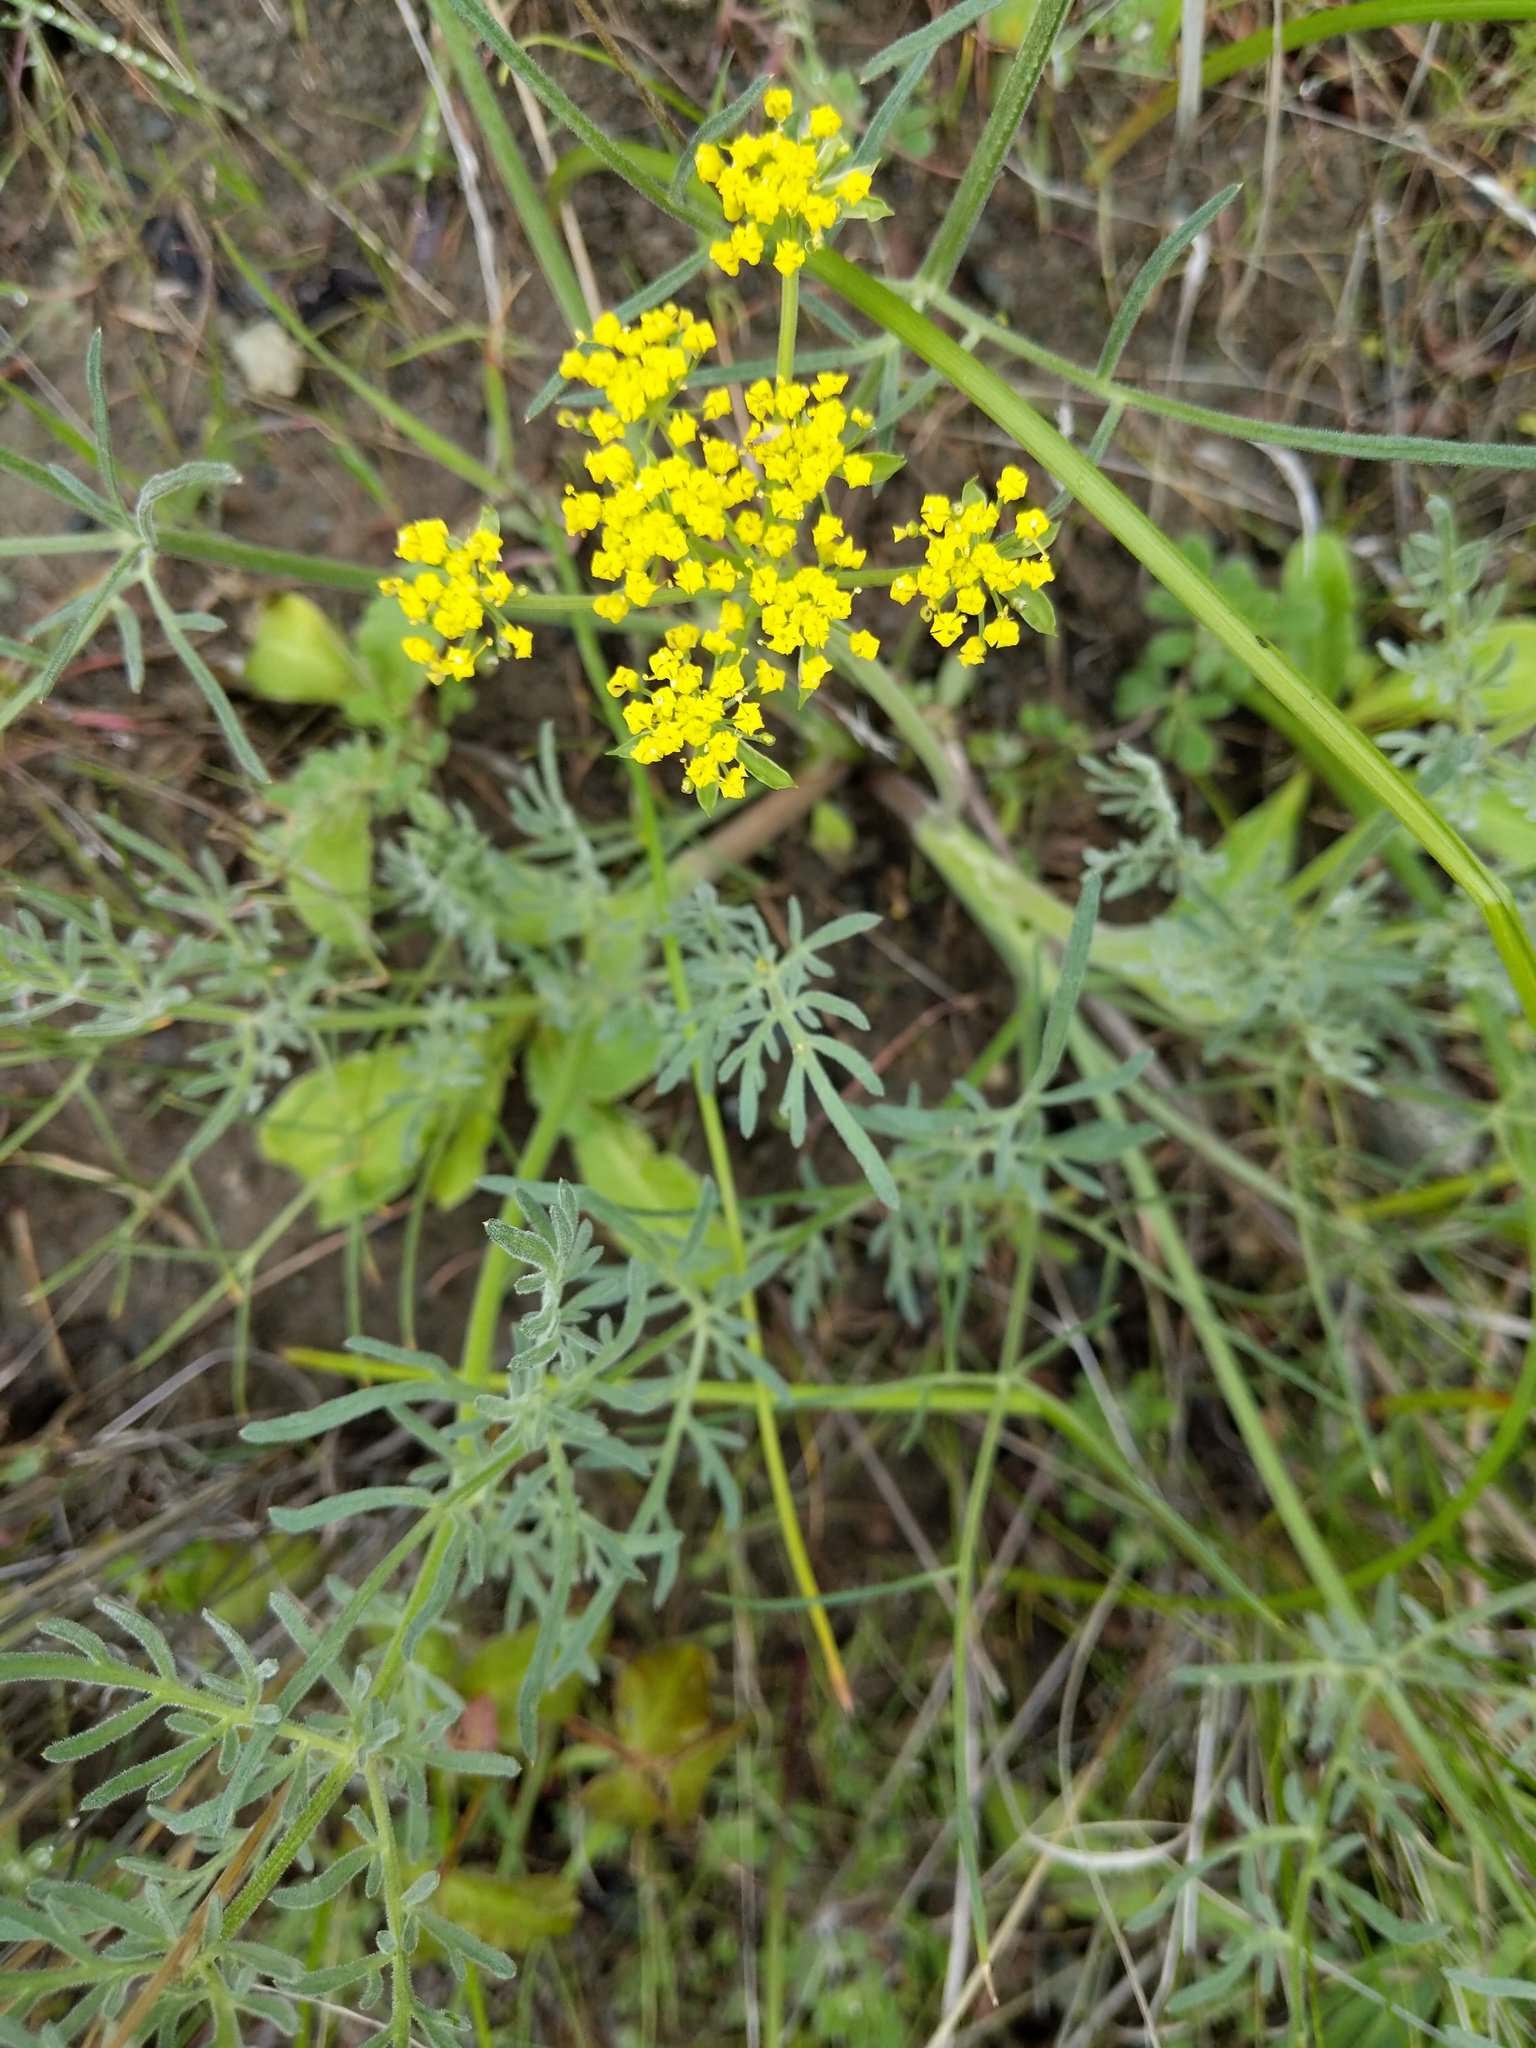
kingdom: Plantae
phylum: Tracheophyta
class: Magnoliopsida
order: Apiales
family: Apiaceae
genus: Lomatium
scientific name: Lomatium utriculatum
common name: Fine-leaf desert-parsley
